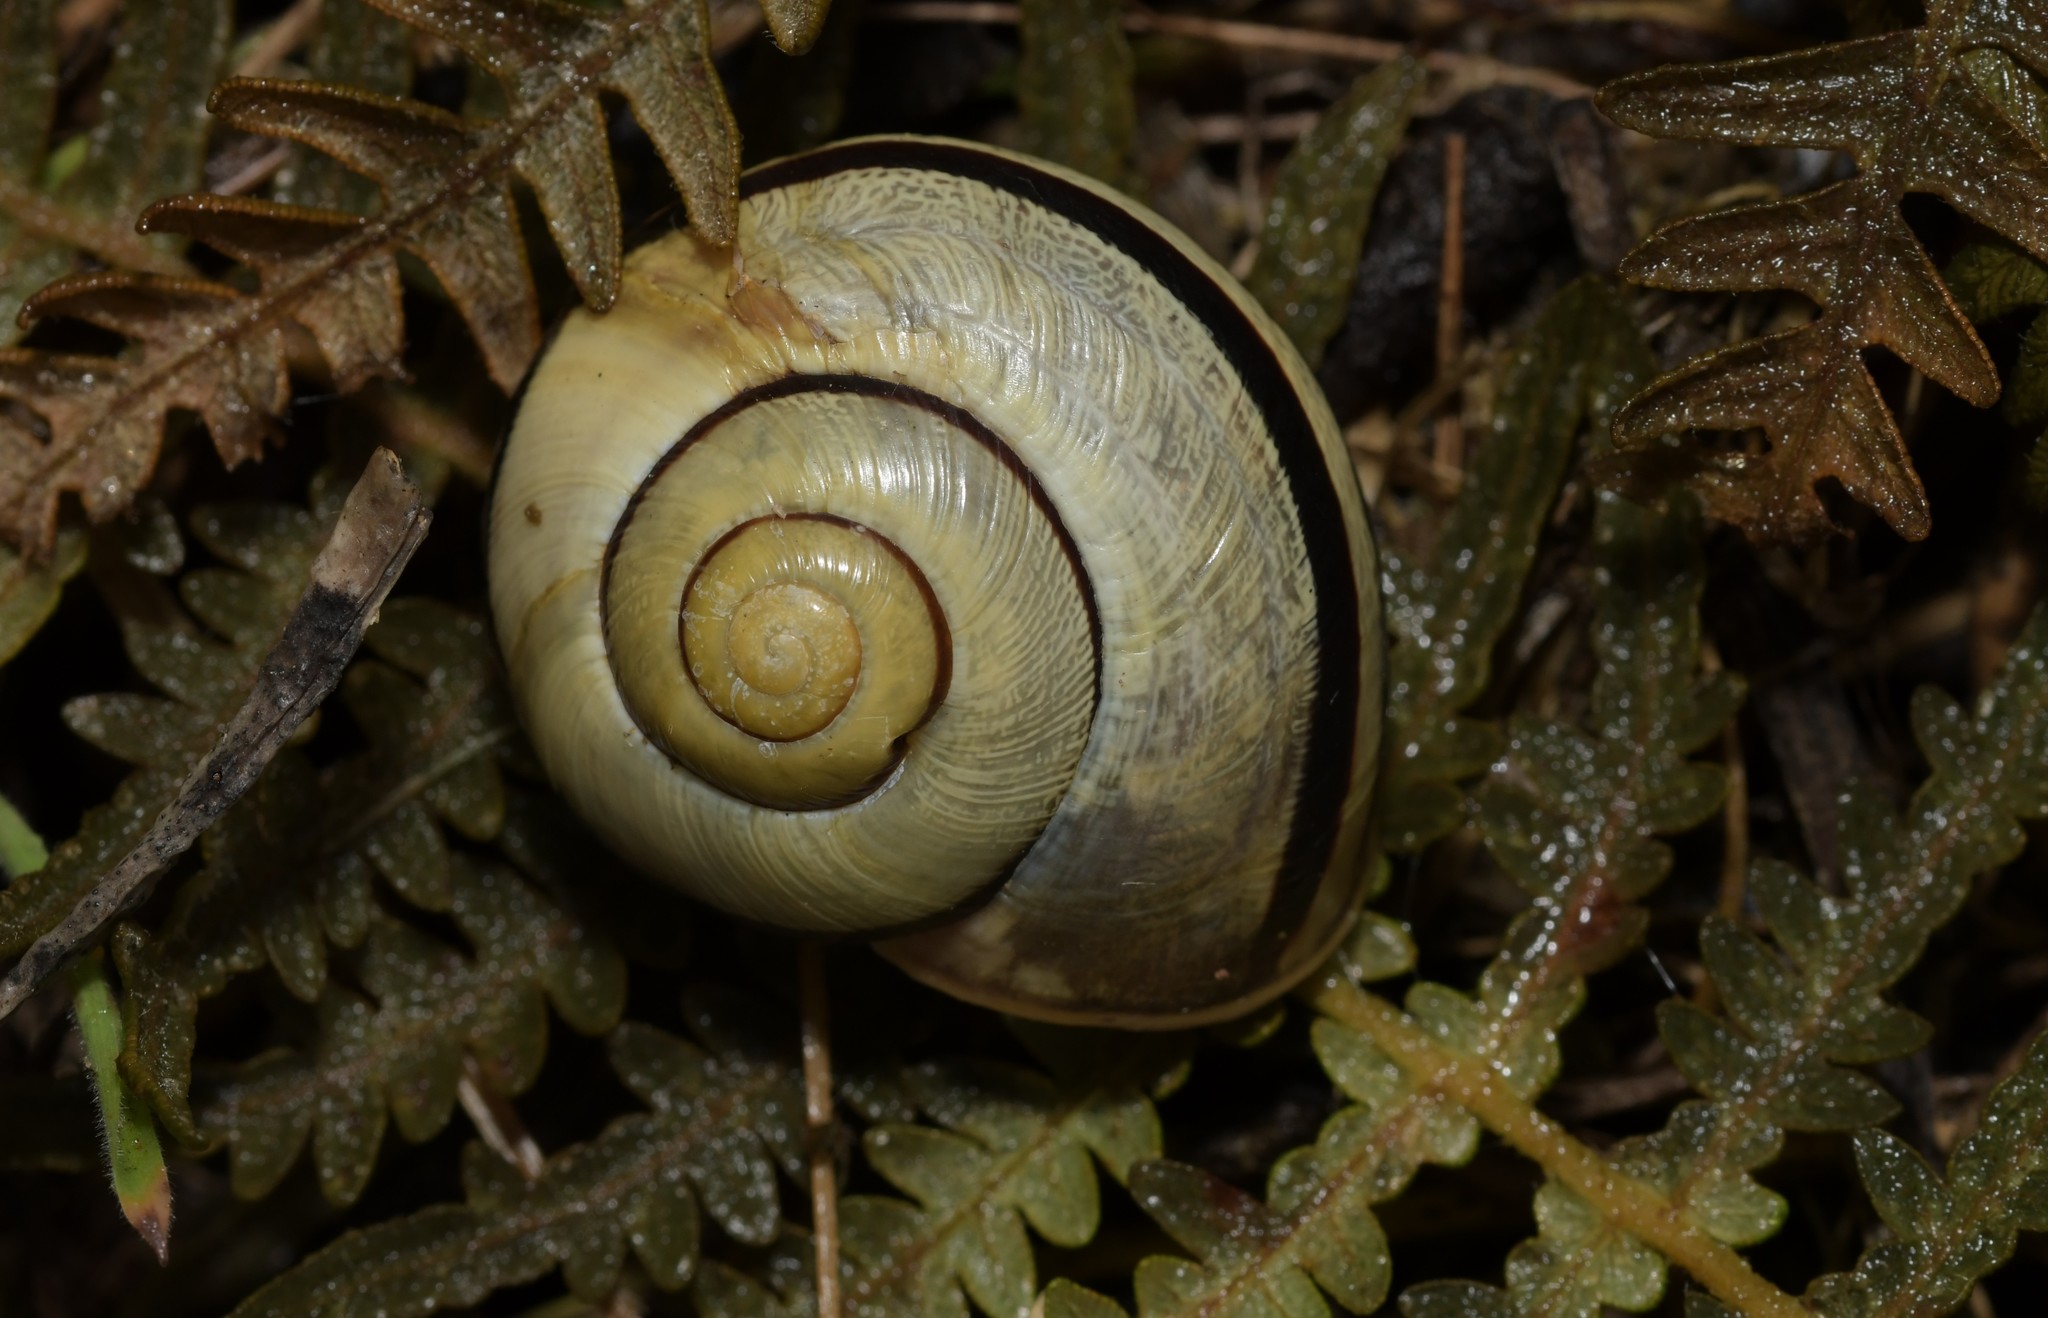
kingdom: Animalia
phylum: Mollusca
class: Gastropoda
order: Stylommatophora
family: Helicidae
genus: Cepaea
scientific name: Cepaea nemoralis
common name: Grovesnail
